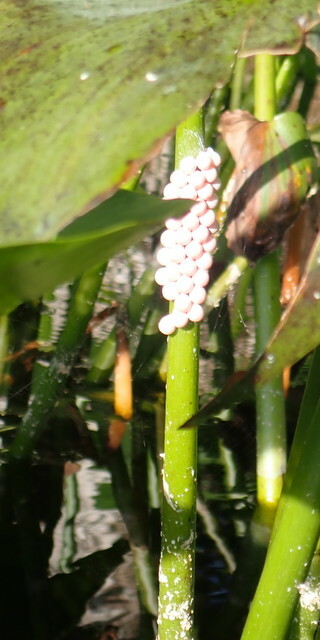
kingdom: Animalia
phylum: Mollusca
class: Gastropoda
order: Architaenioglossa
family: Ampullariidae
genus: Pomacea
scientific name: Pomacea paludosa
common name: Florida applesnail
